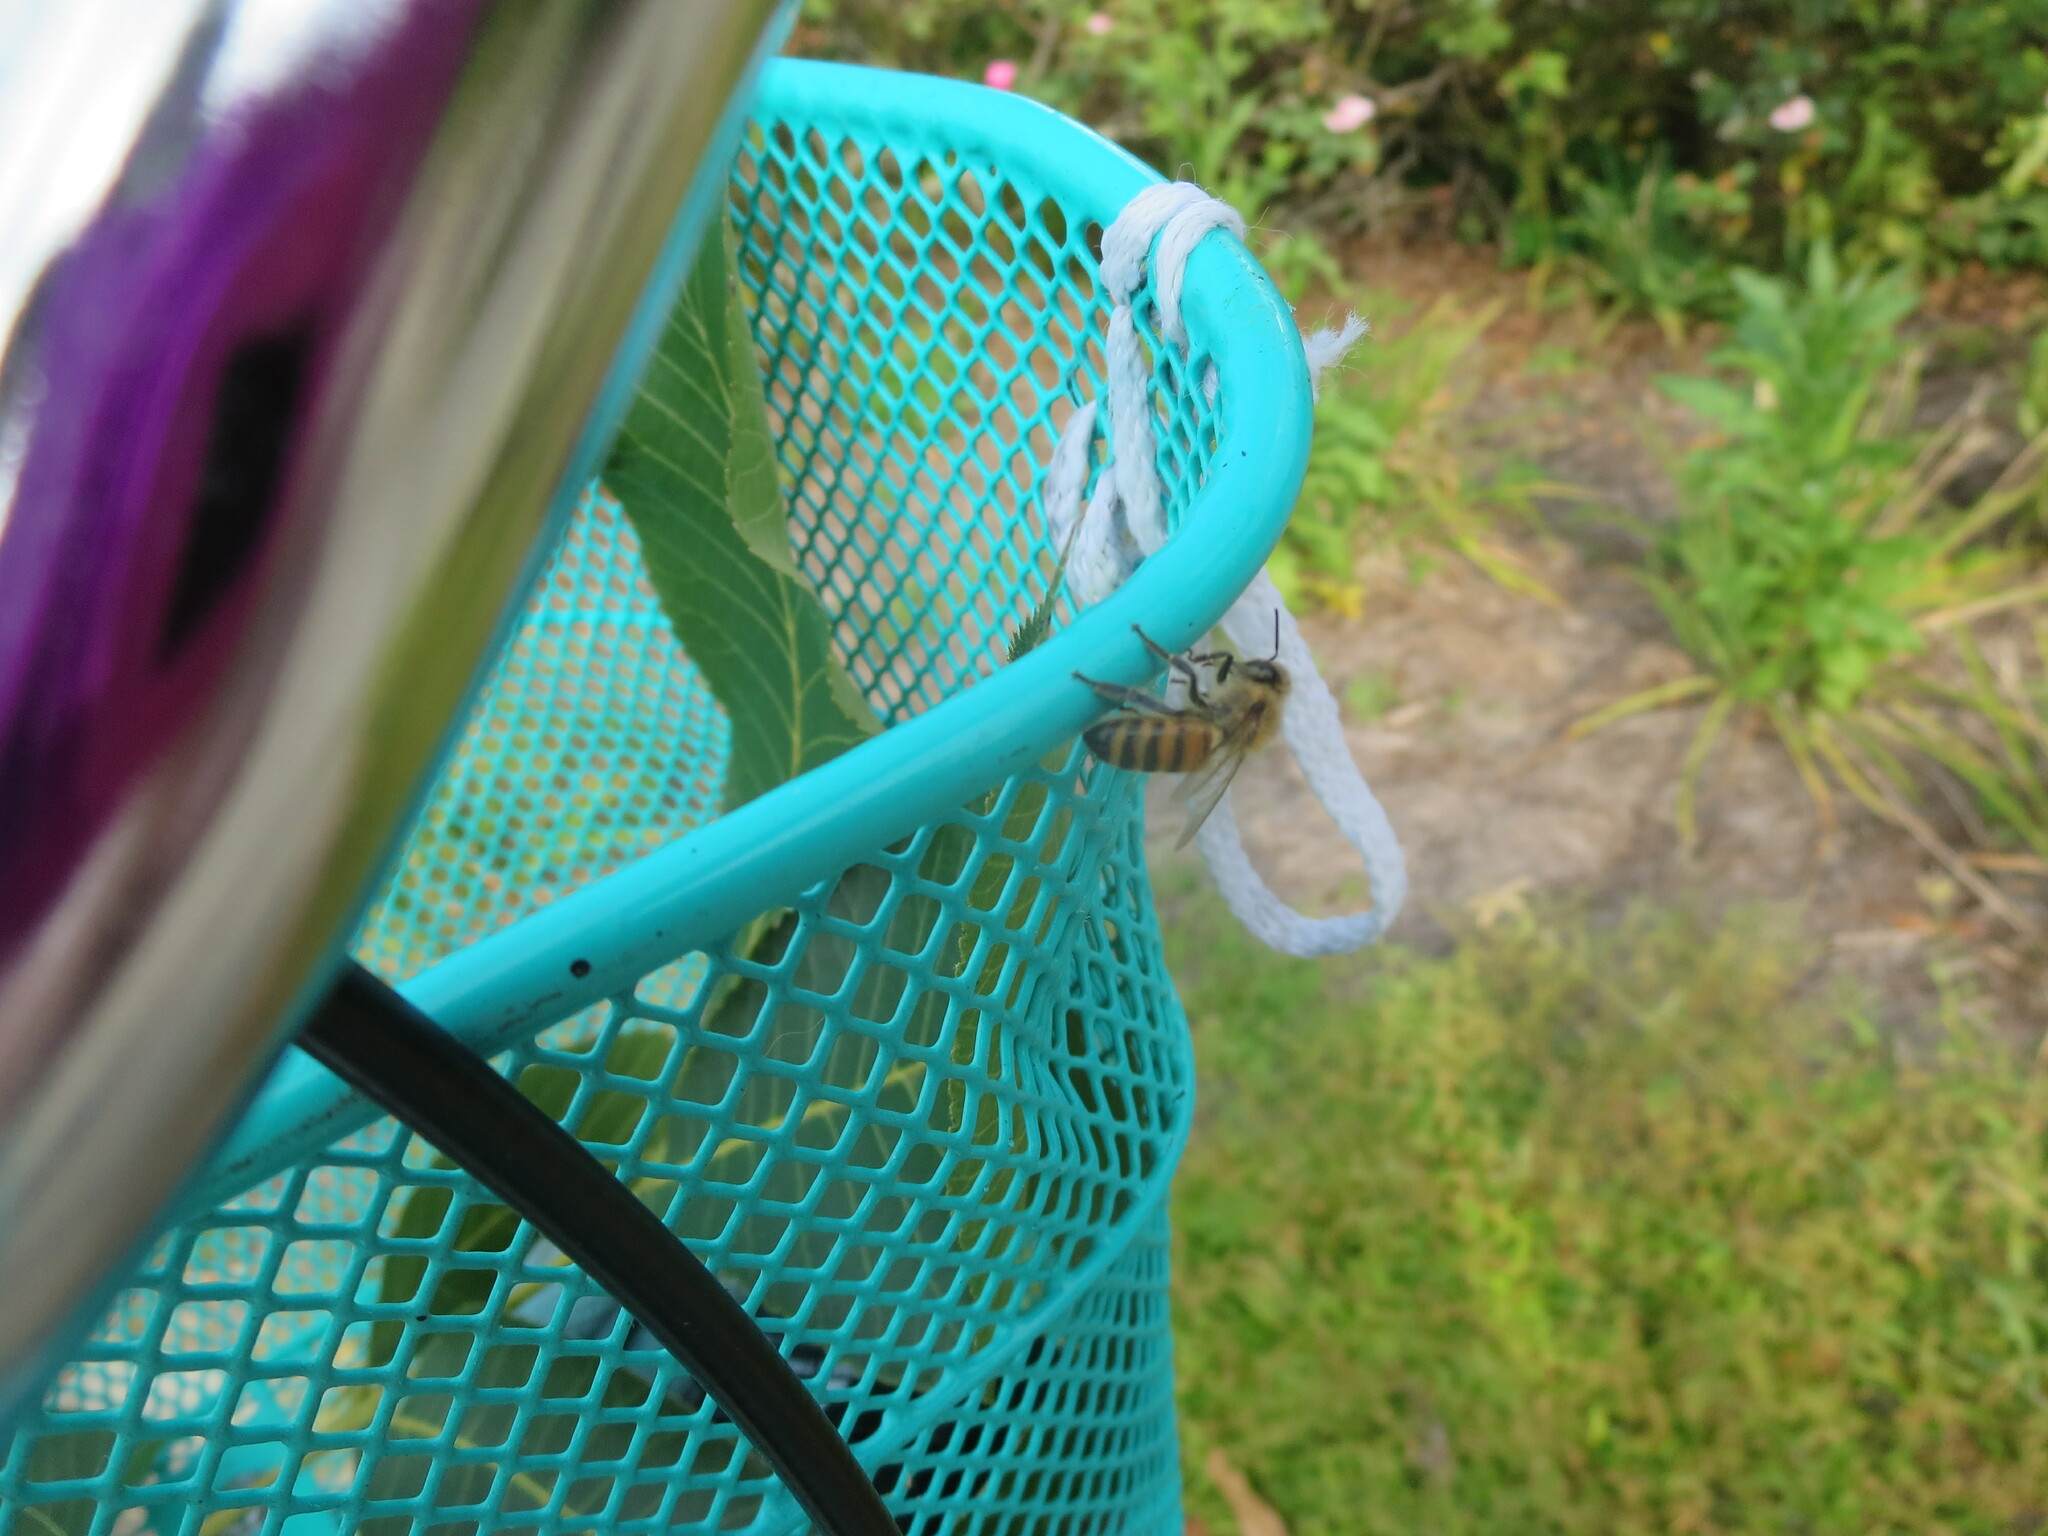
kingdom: Animalia
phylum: Arthropoda
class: Insecta
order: Hymenoptera
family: Apidae
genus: Apis
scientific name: Apis mellifera
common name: Honey bee
